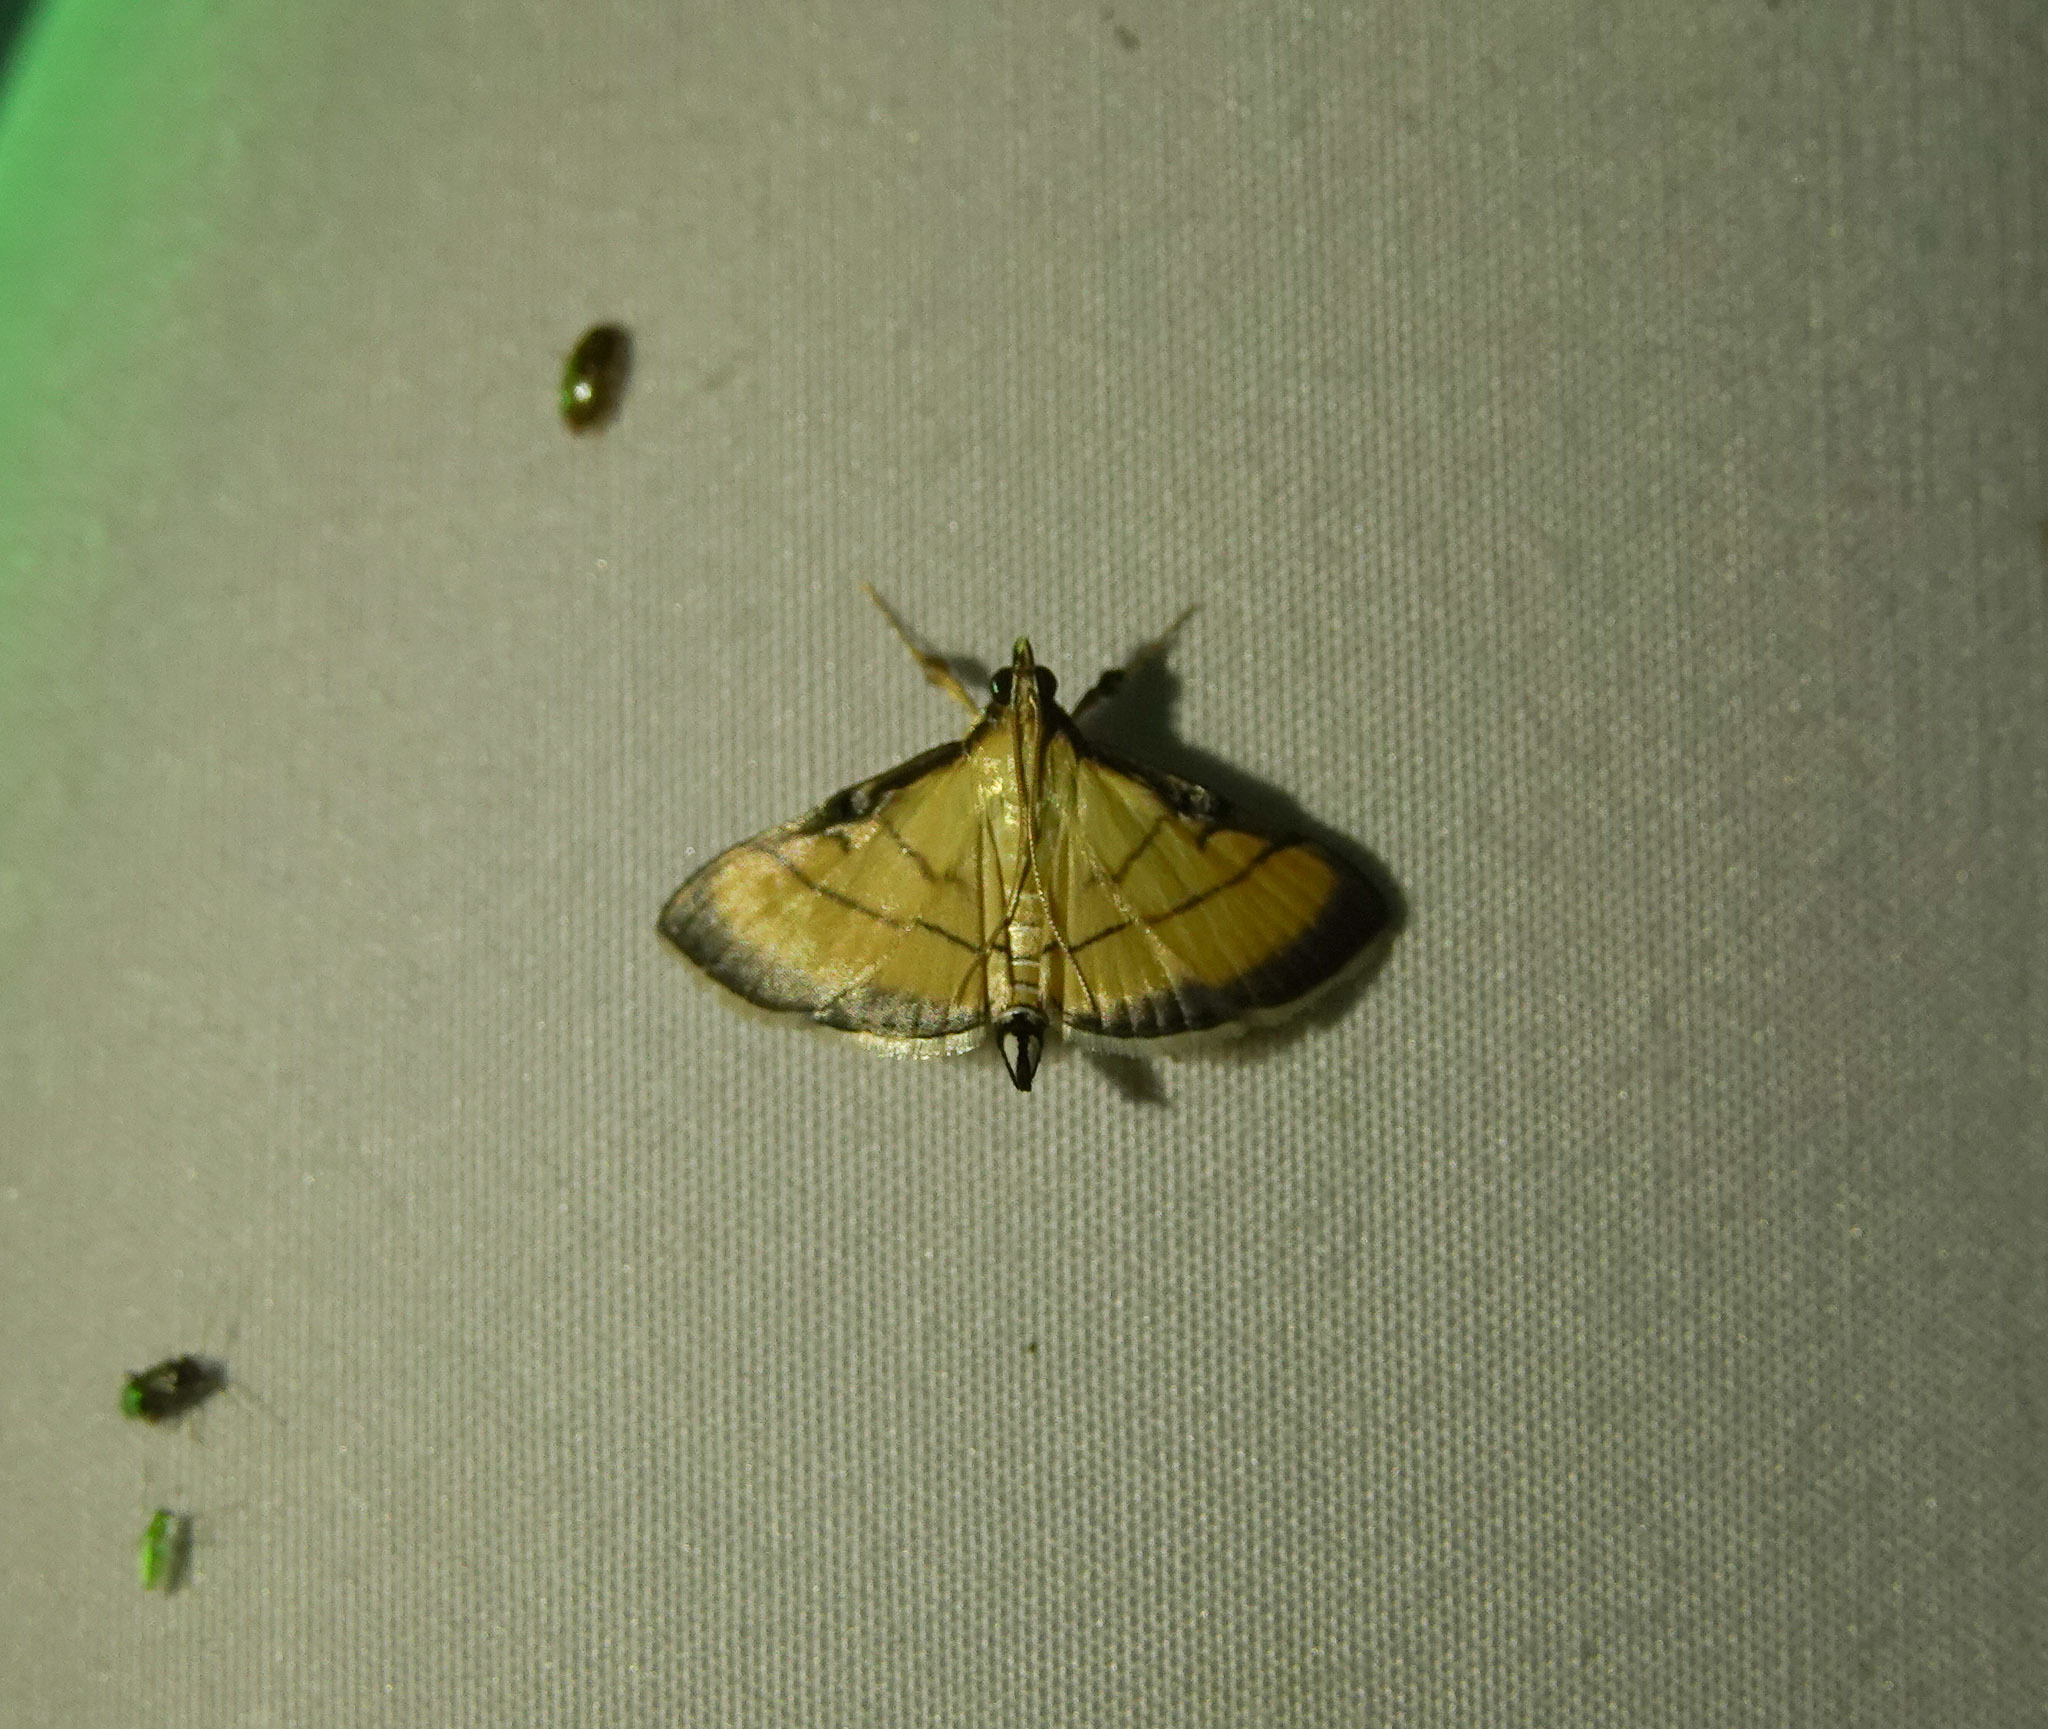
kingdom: Animalia
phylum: Arthropoda
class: Insecta
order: Lepidoptera
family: Crambidae
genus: Cnaphalocrocis
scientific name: Cnaphalocrocis medinalis
